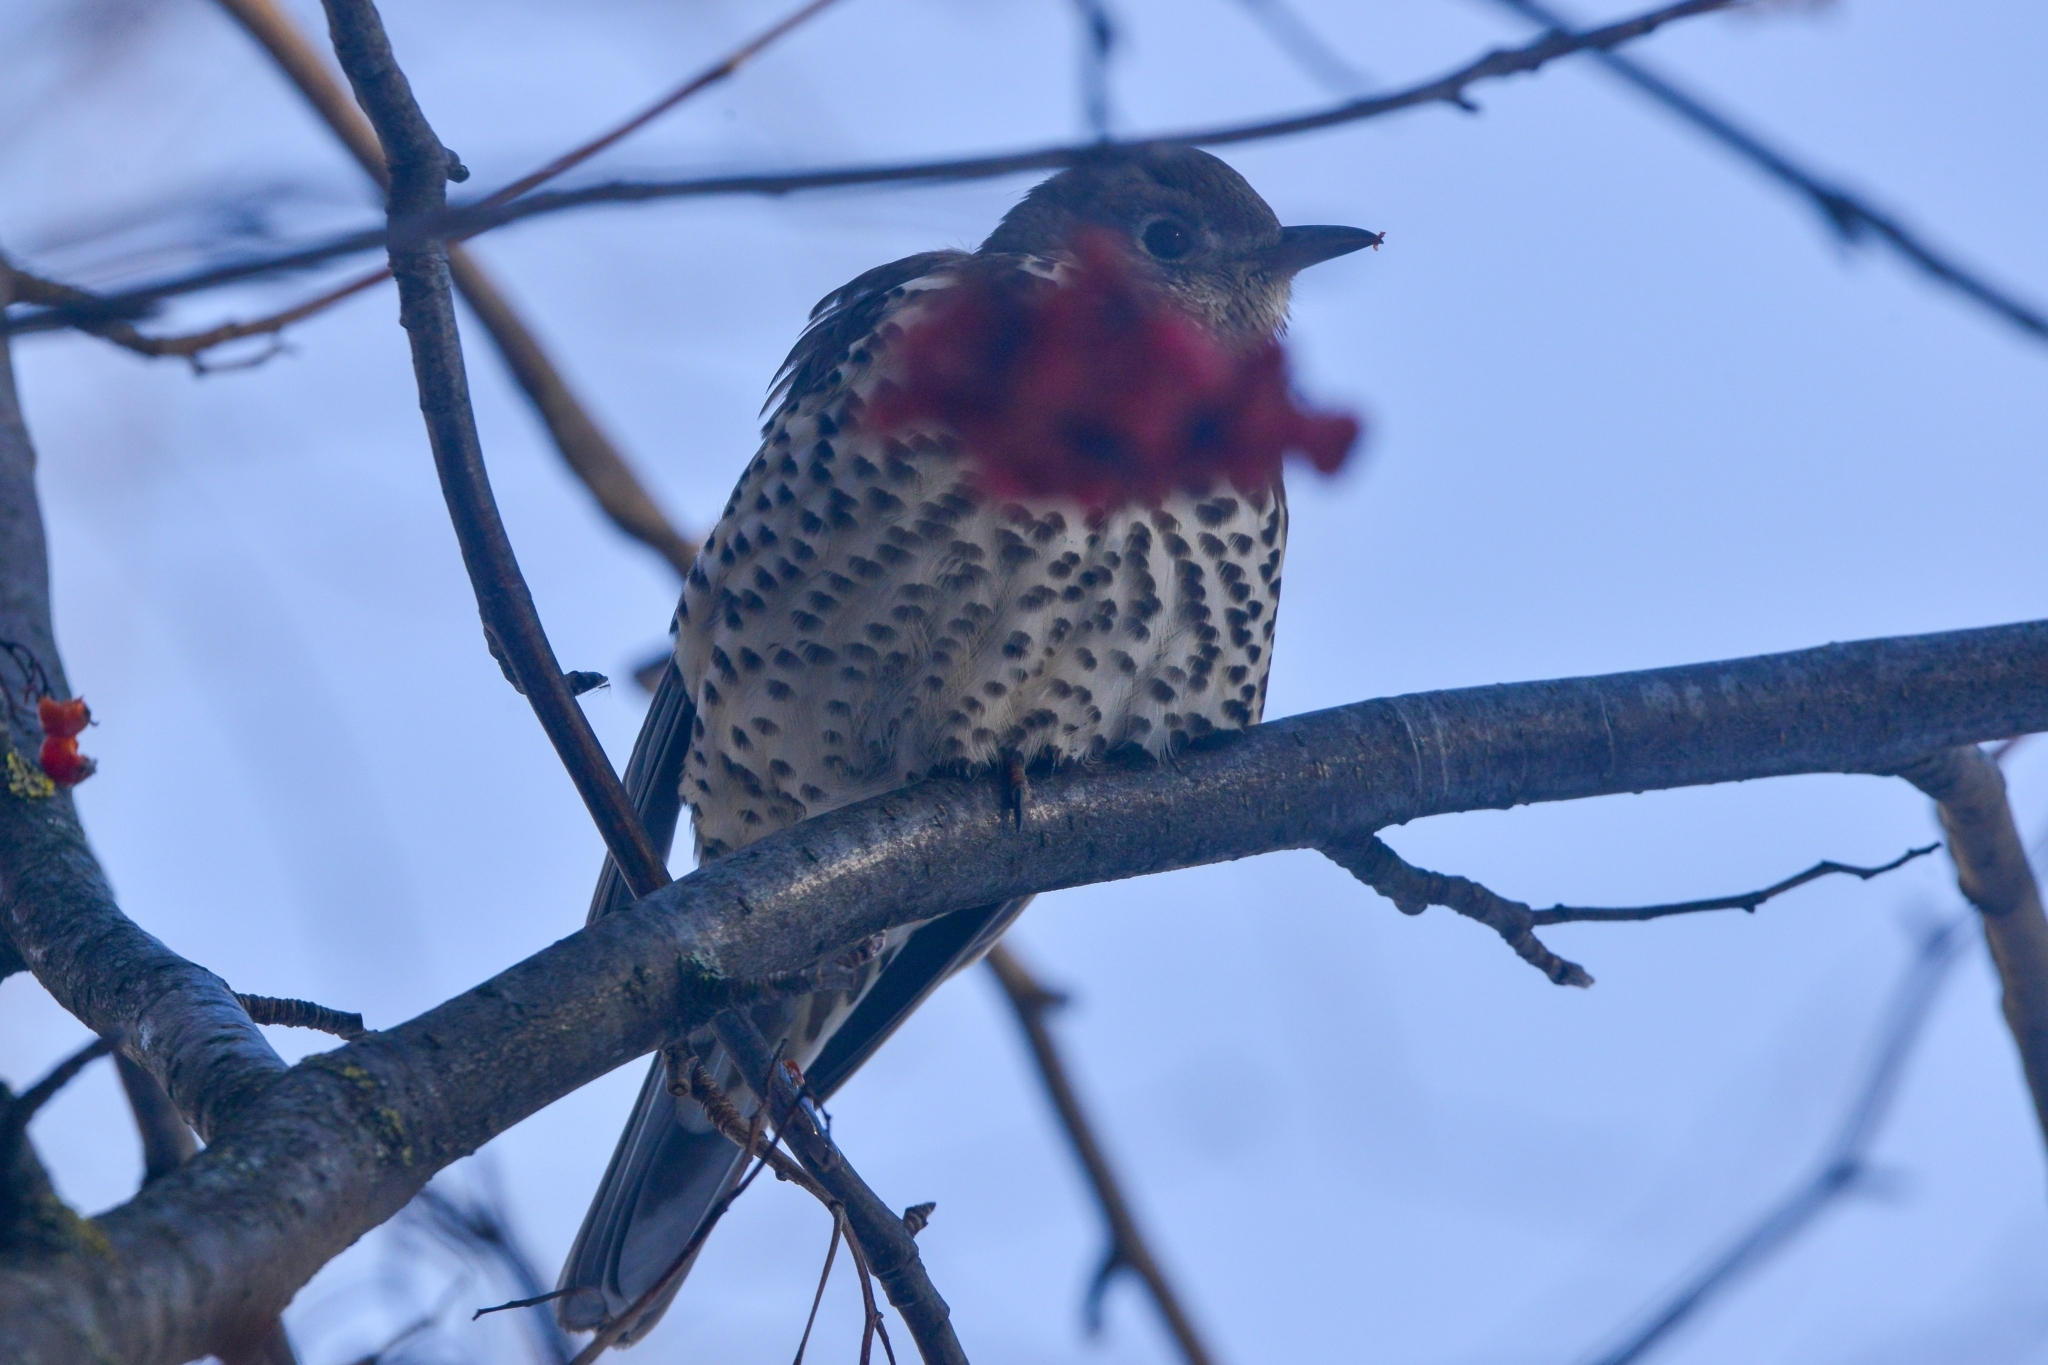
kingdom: Animalia
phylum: Chordata
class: Aves
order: Passeriformes
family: Turdidae
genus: Turdus
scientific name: Turdus viscivorus
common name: Mistle thrush
